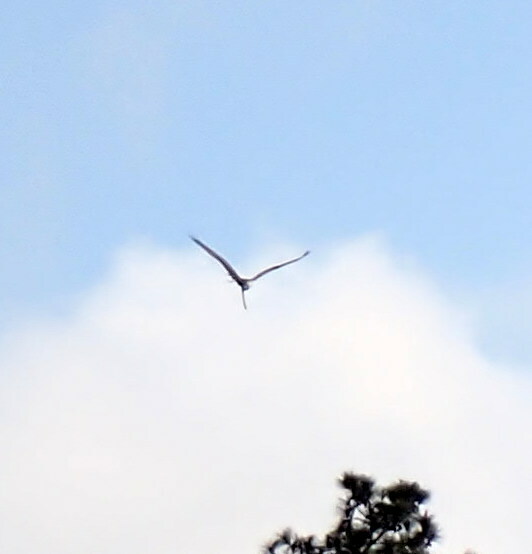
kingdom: Animalia
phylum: Chordata
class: Aves
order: Pelecaniformes
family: Ardeidae
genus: Ardea
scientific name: Ardea alba
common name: Great egret
